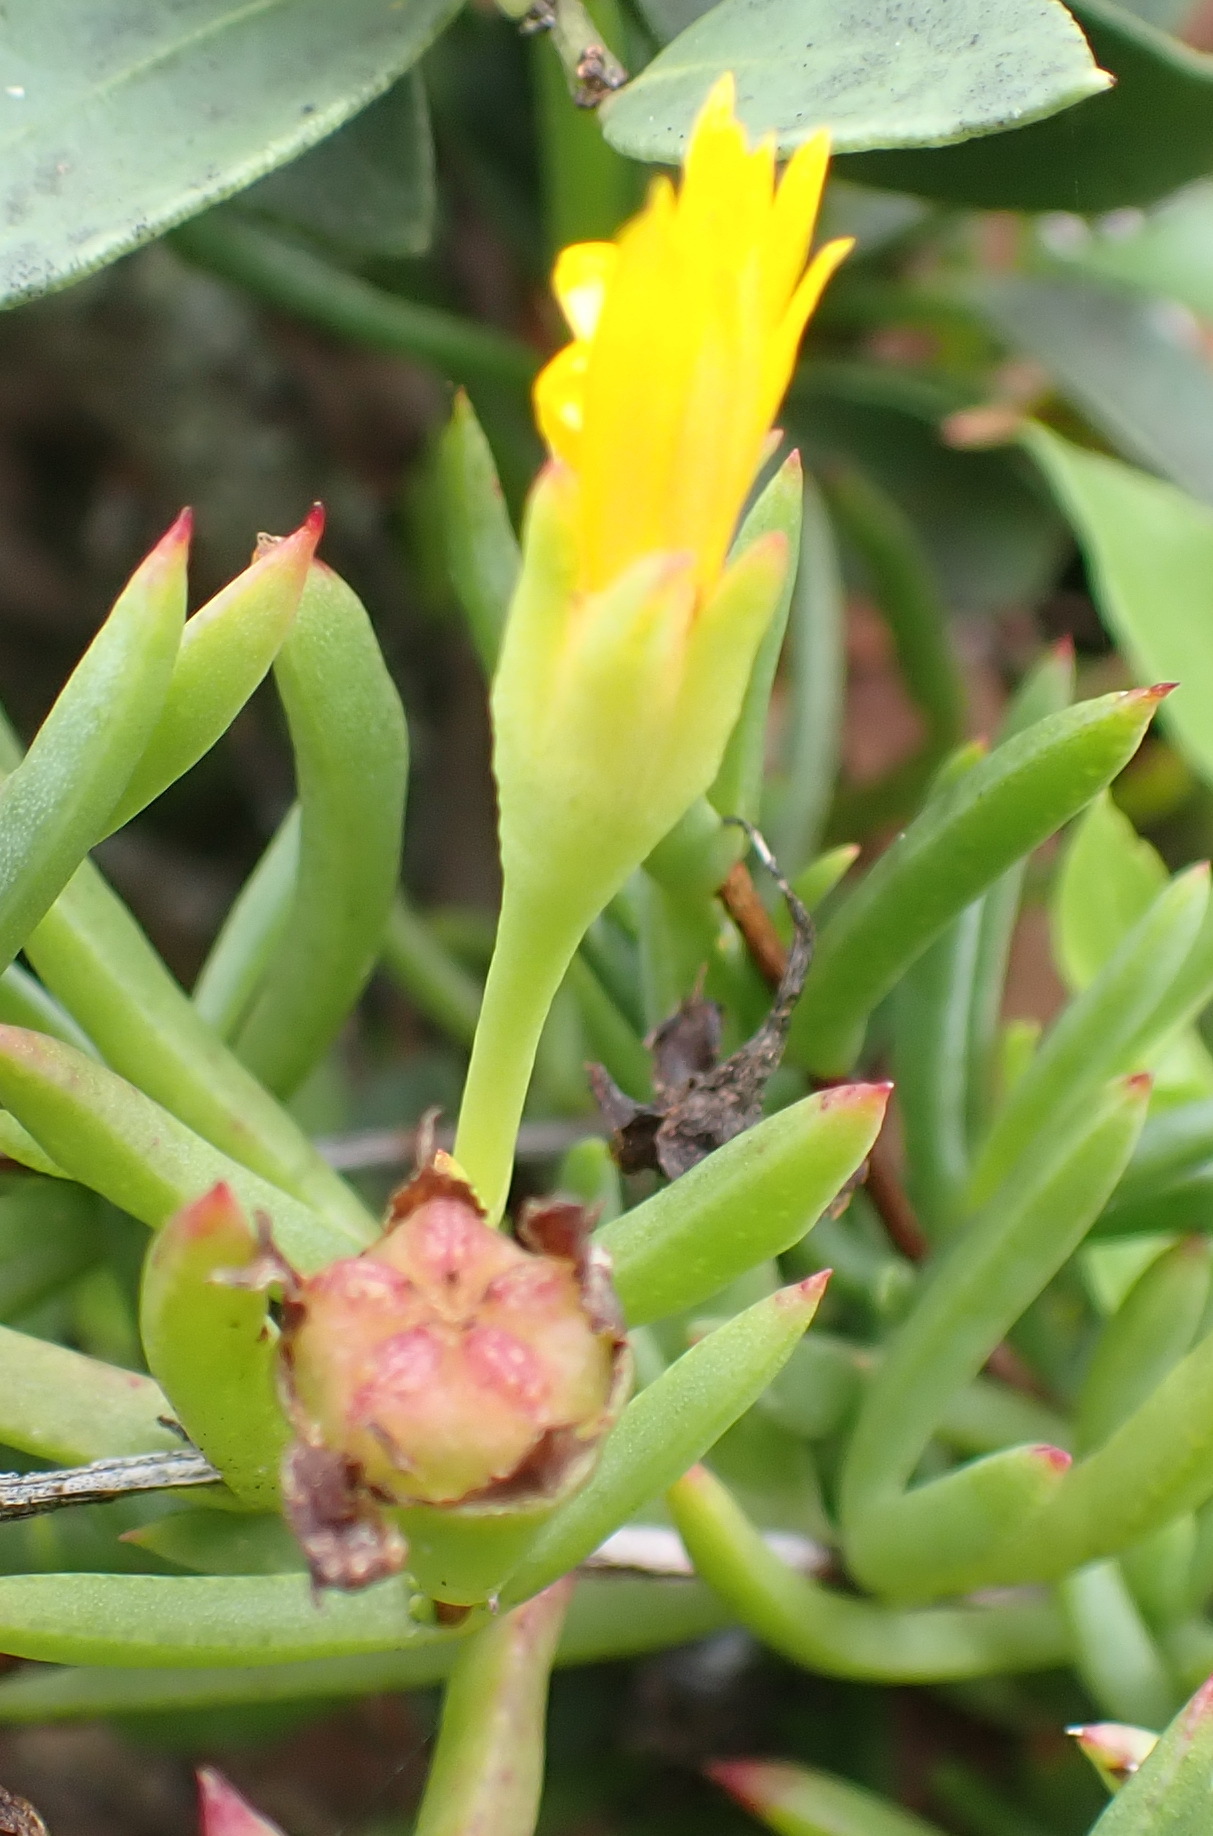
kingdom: Plantae
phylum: Tracheophyta
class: Magnoliopsida
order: Caryophyllales
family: Aizoaceae
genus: Lampranthus
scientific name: Lampranthus fergusoniae
